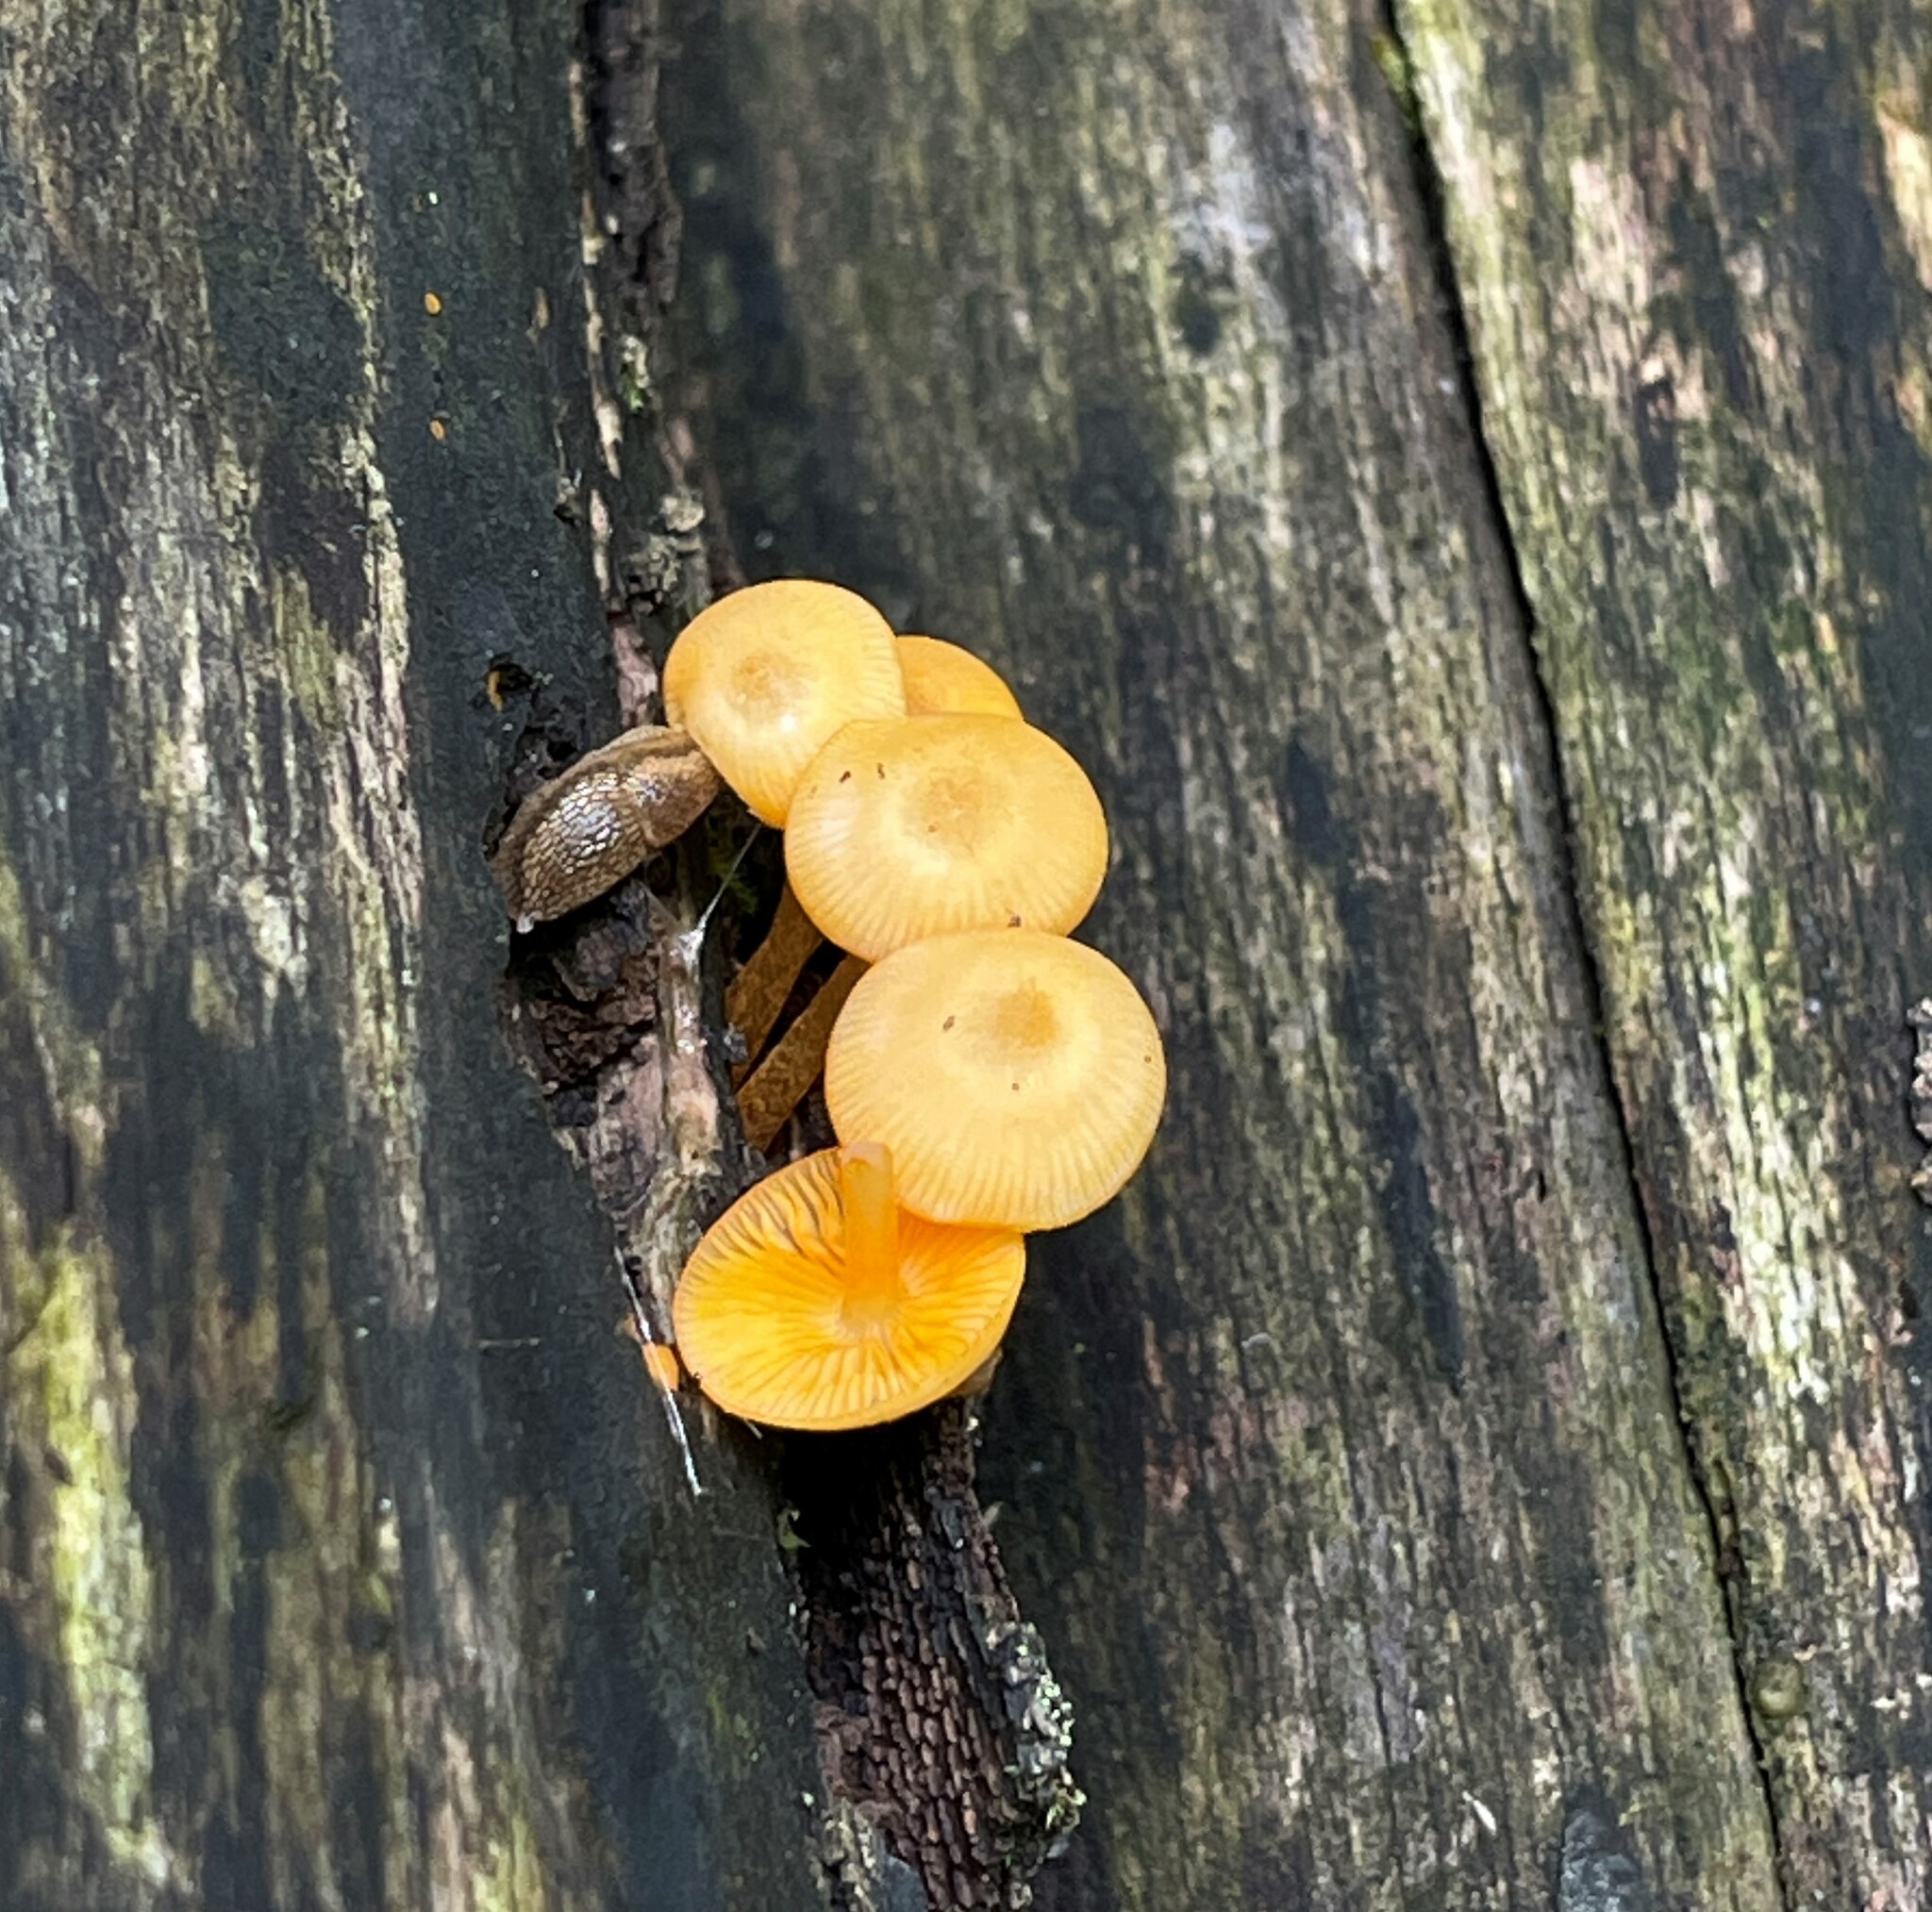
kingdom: Fungi
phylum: Basidiomycota
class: Agaricomycetes
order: Agaricales
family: Mycenaceae
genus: Mycena
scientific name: Mycena leaiana
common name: Orange mycena
